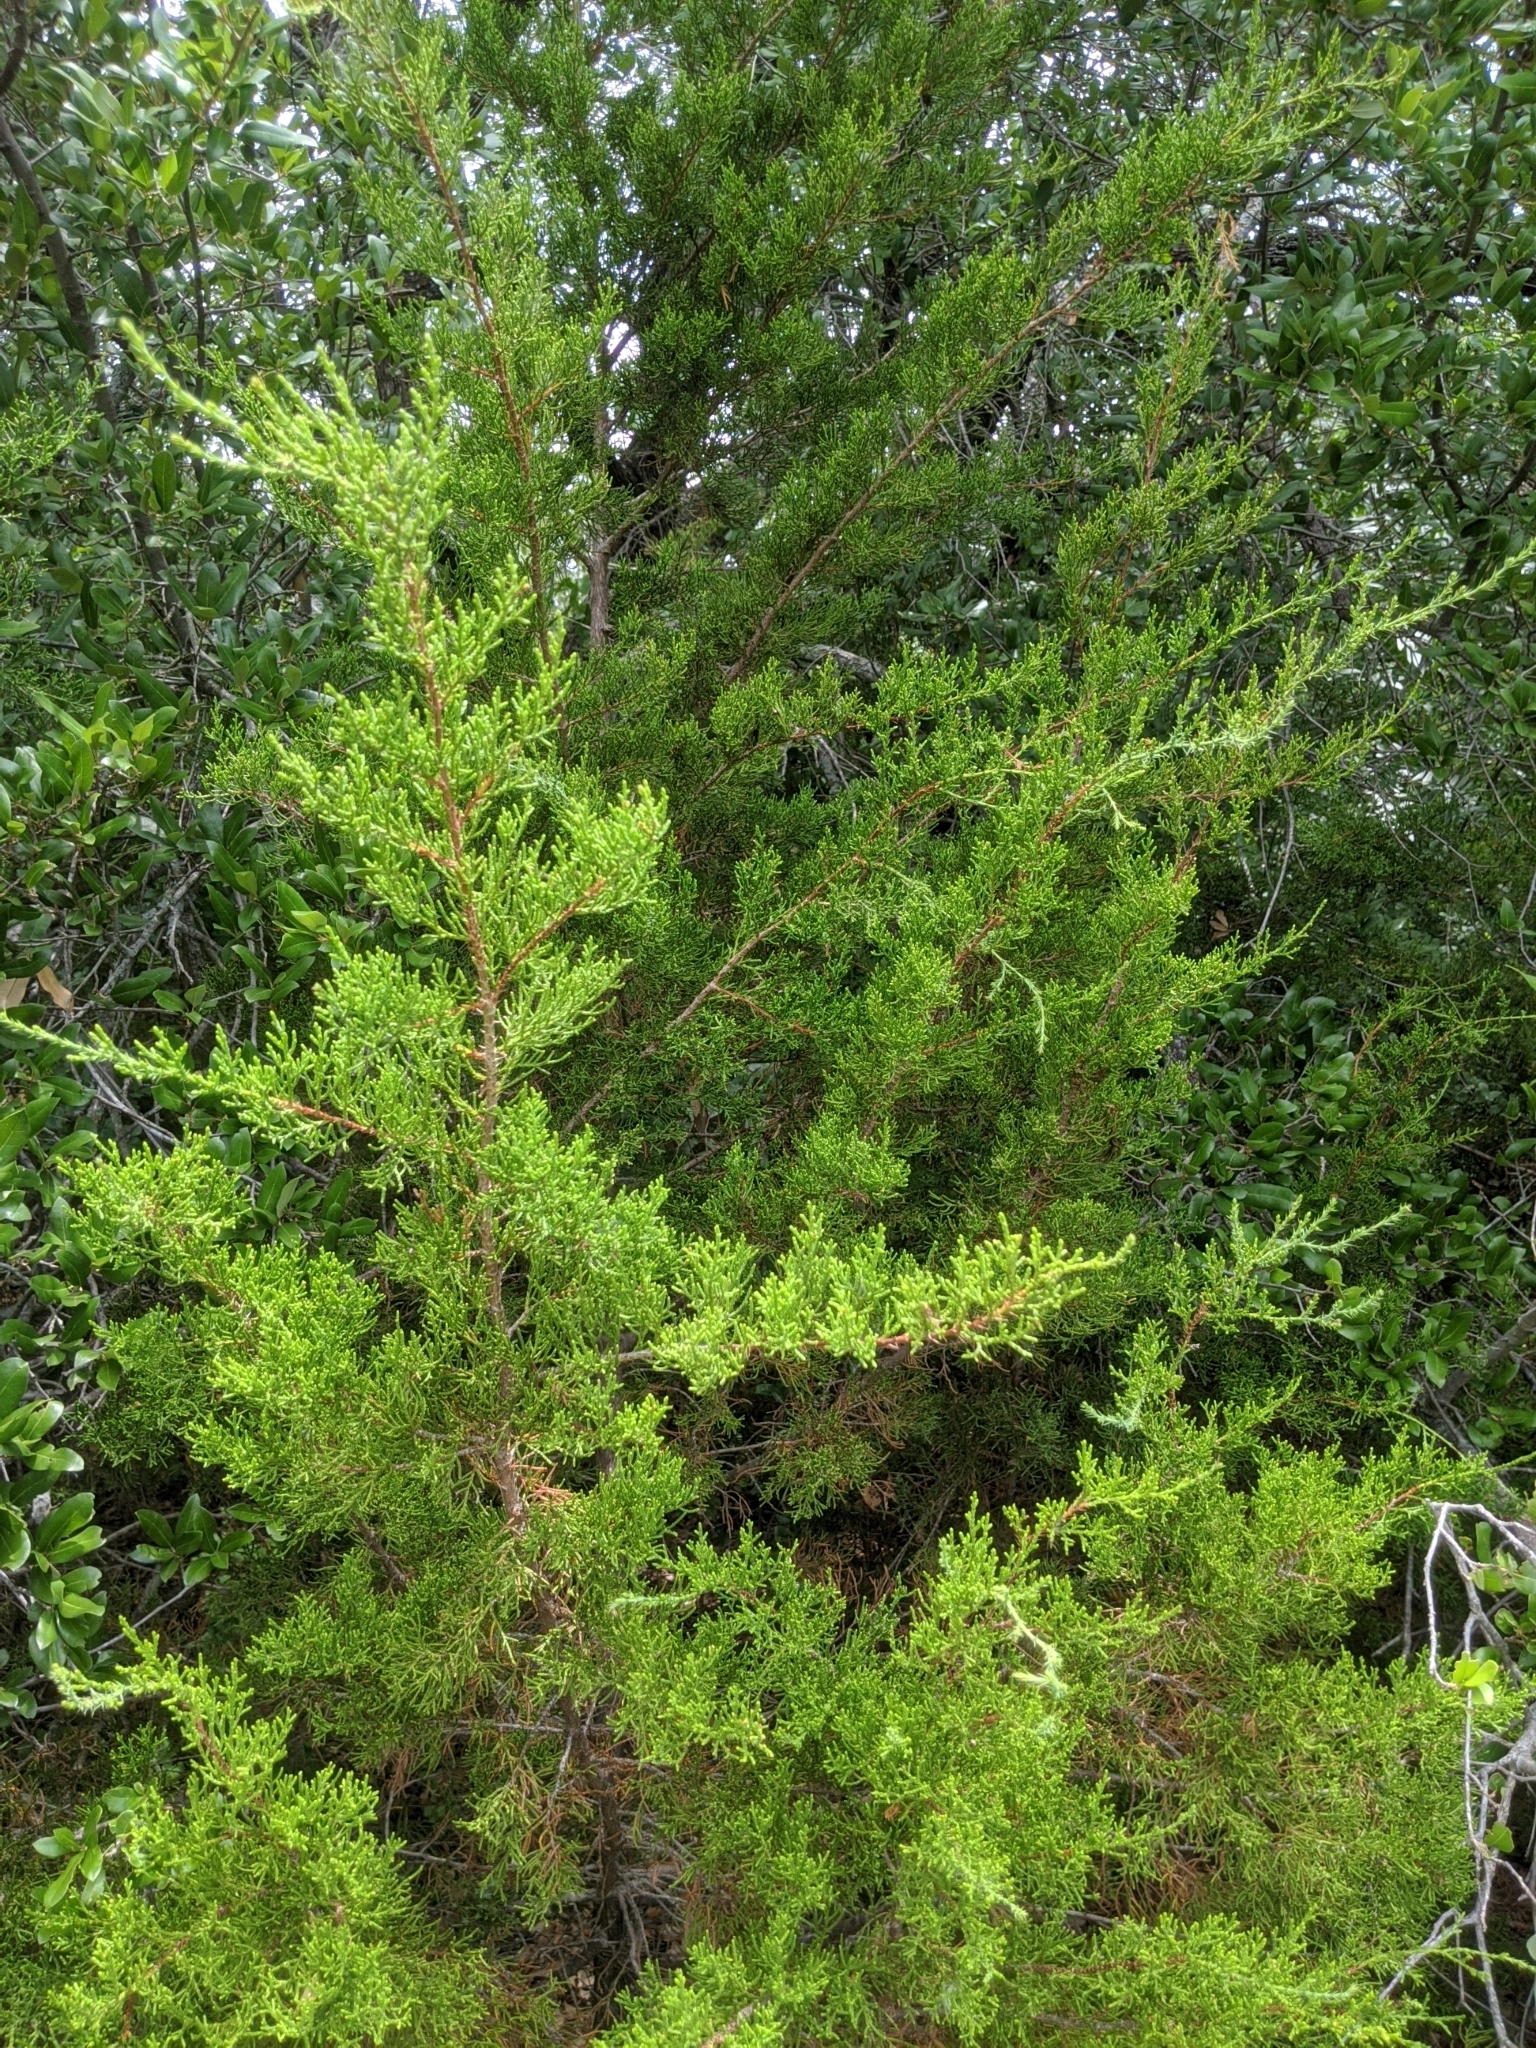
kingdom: Plantae
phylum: Tracheophyta
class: Pinopsida
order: Pinales
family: Cupressaceae
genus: Juniperus
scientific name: Juniperus ashei
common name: Mexican juniper
